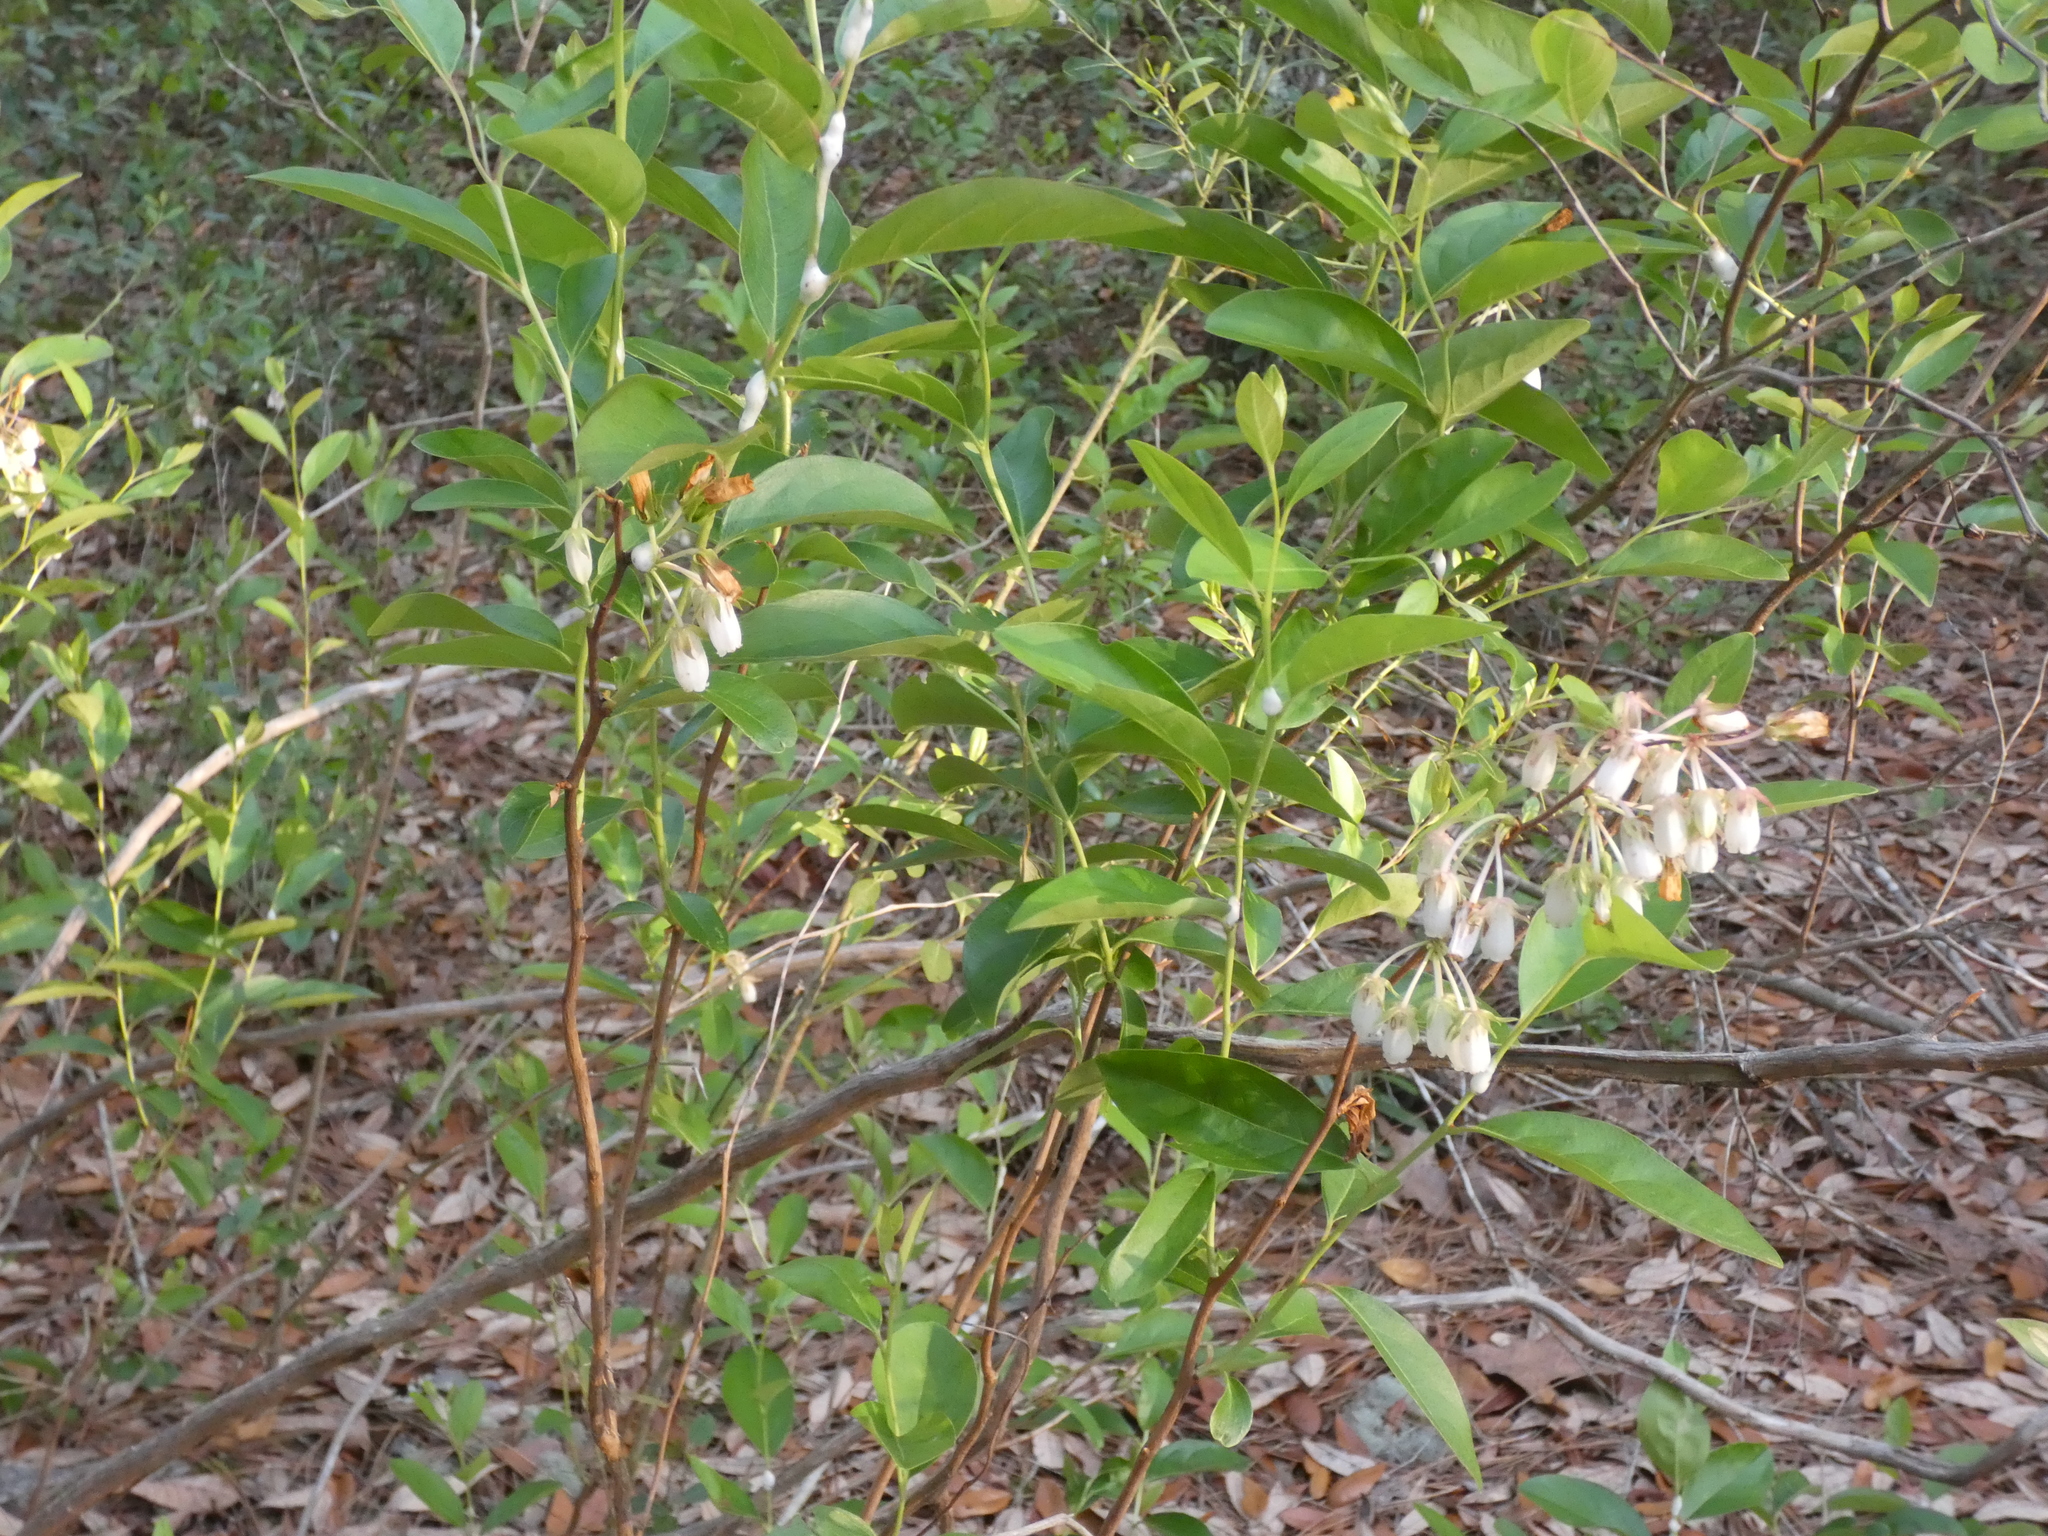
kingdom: Plantae
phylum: Tracheophyta
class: Magnoliopsida
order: Ericales
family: Ericaceae
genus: Lyonia
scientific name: Lyonia mariana
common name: Staggerbush
